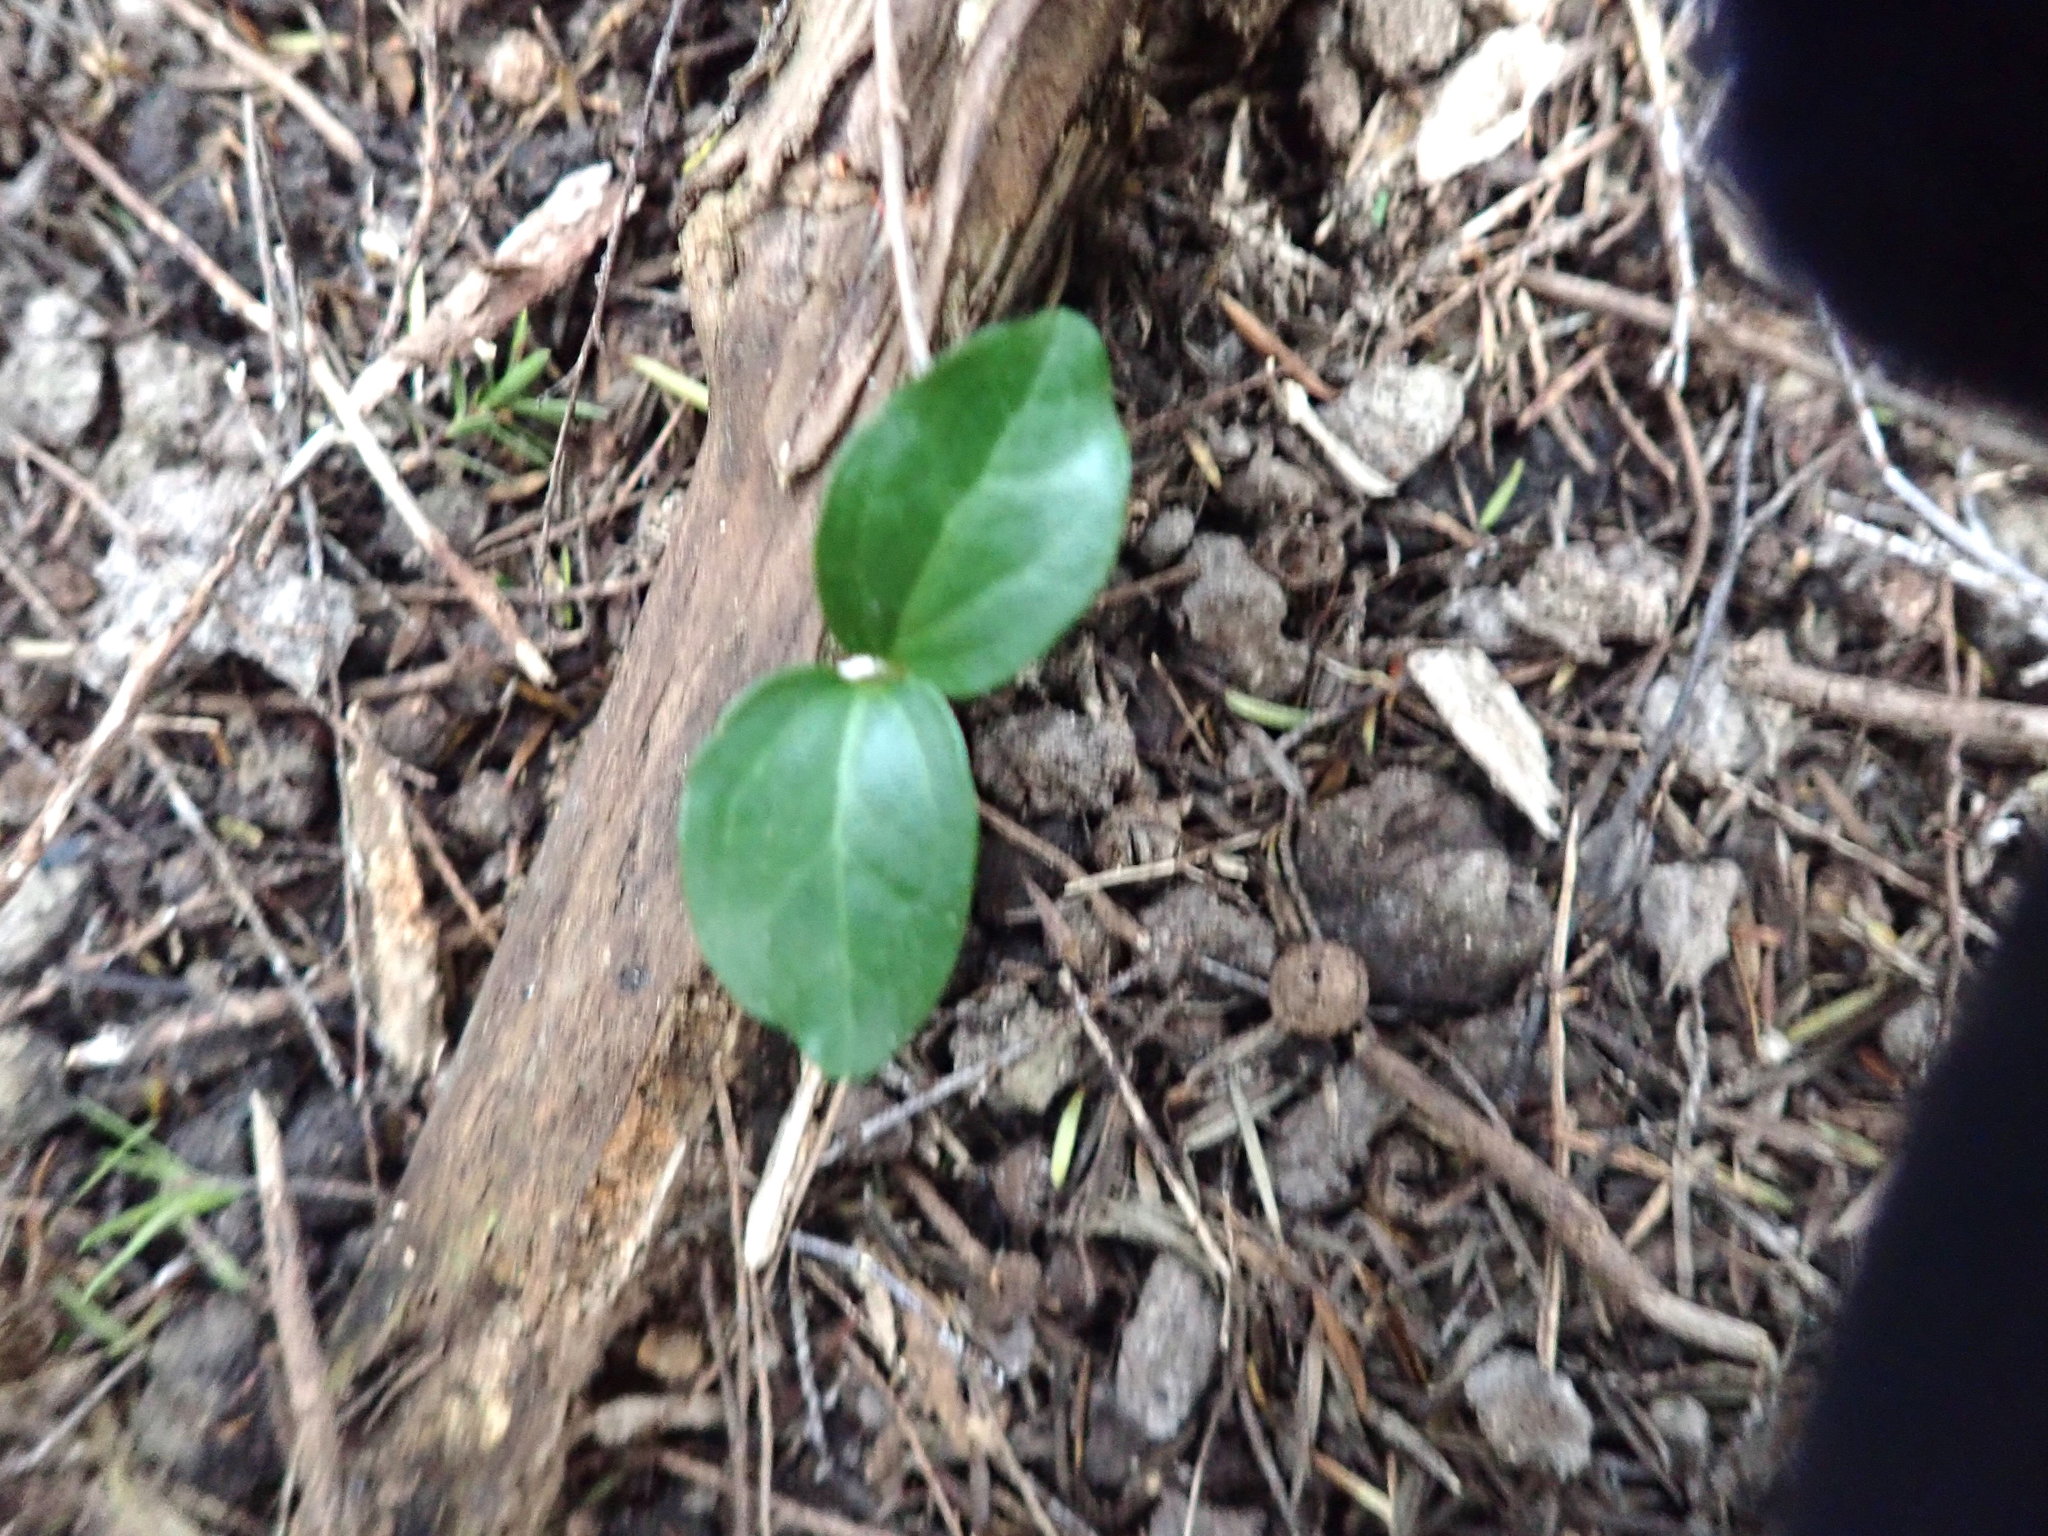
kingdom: Plantae
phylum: Tracheophyta
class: Magnoliopsida
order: Apiales
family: Araliaceae
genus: Hedera
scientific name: Hedera helix
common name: Ivy
